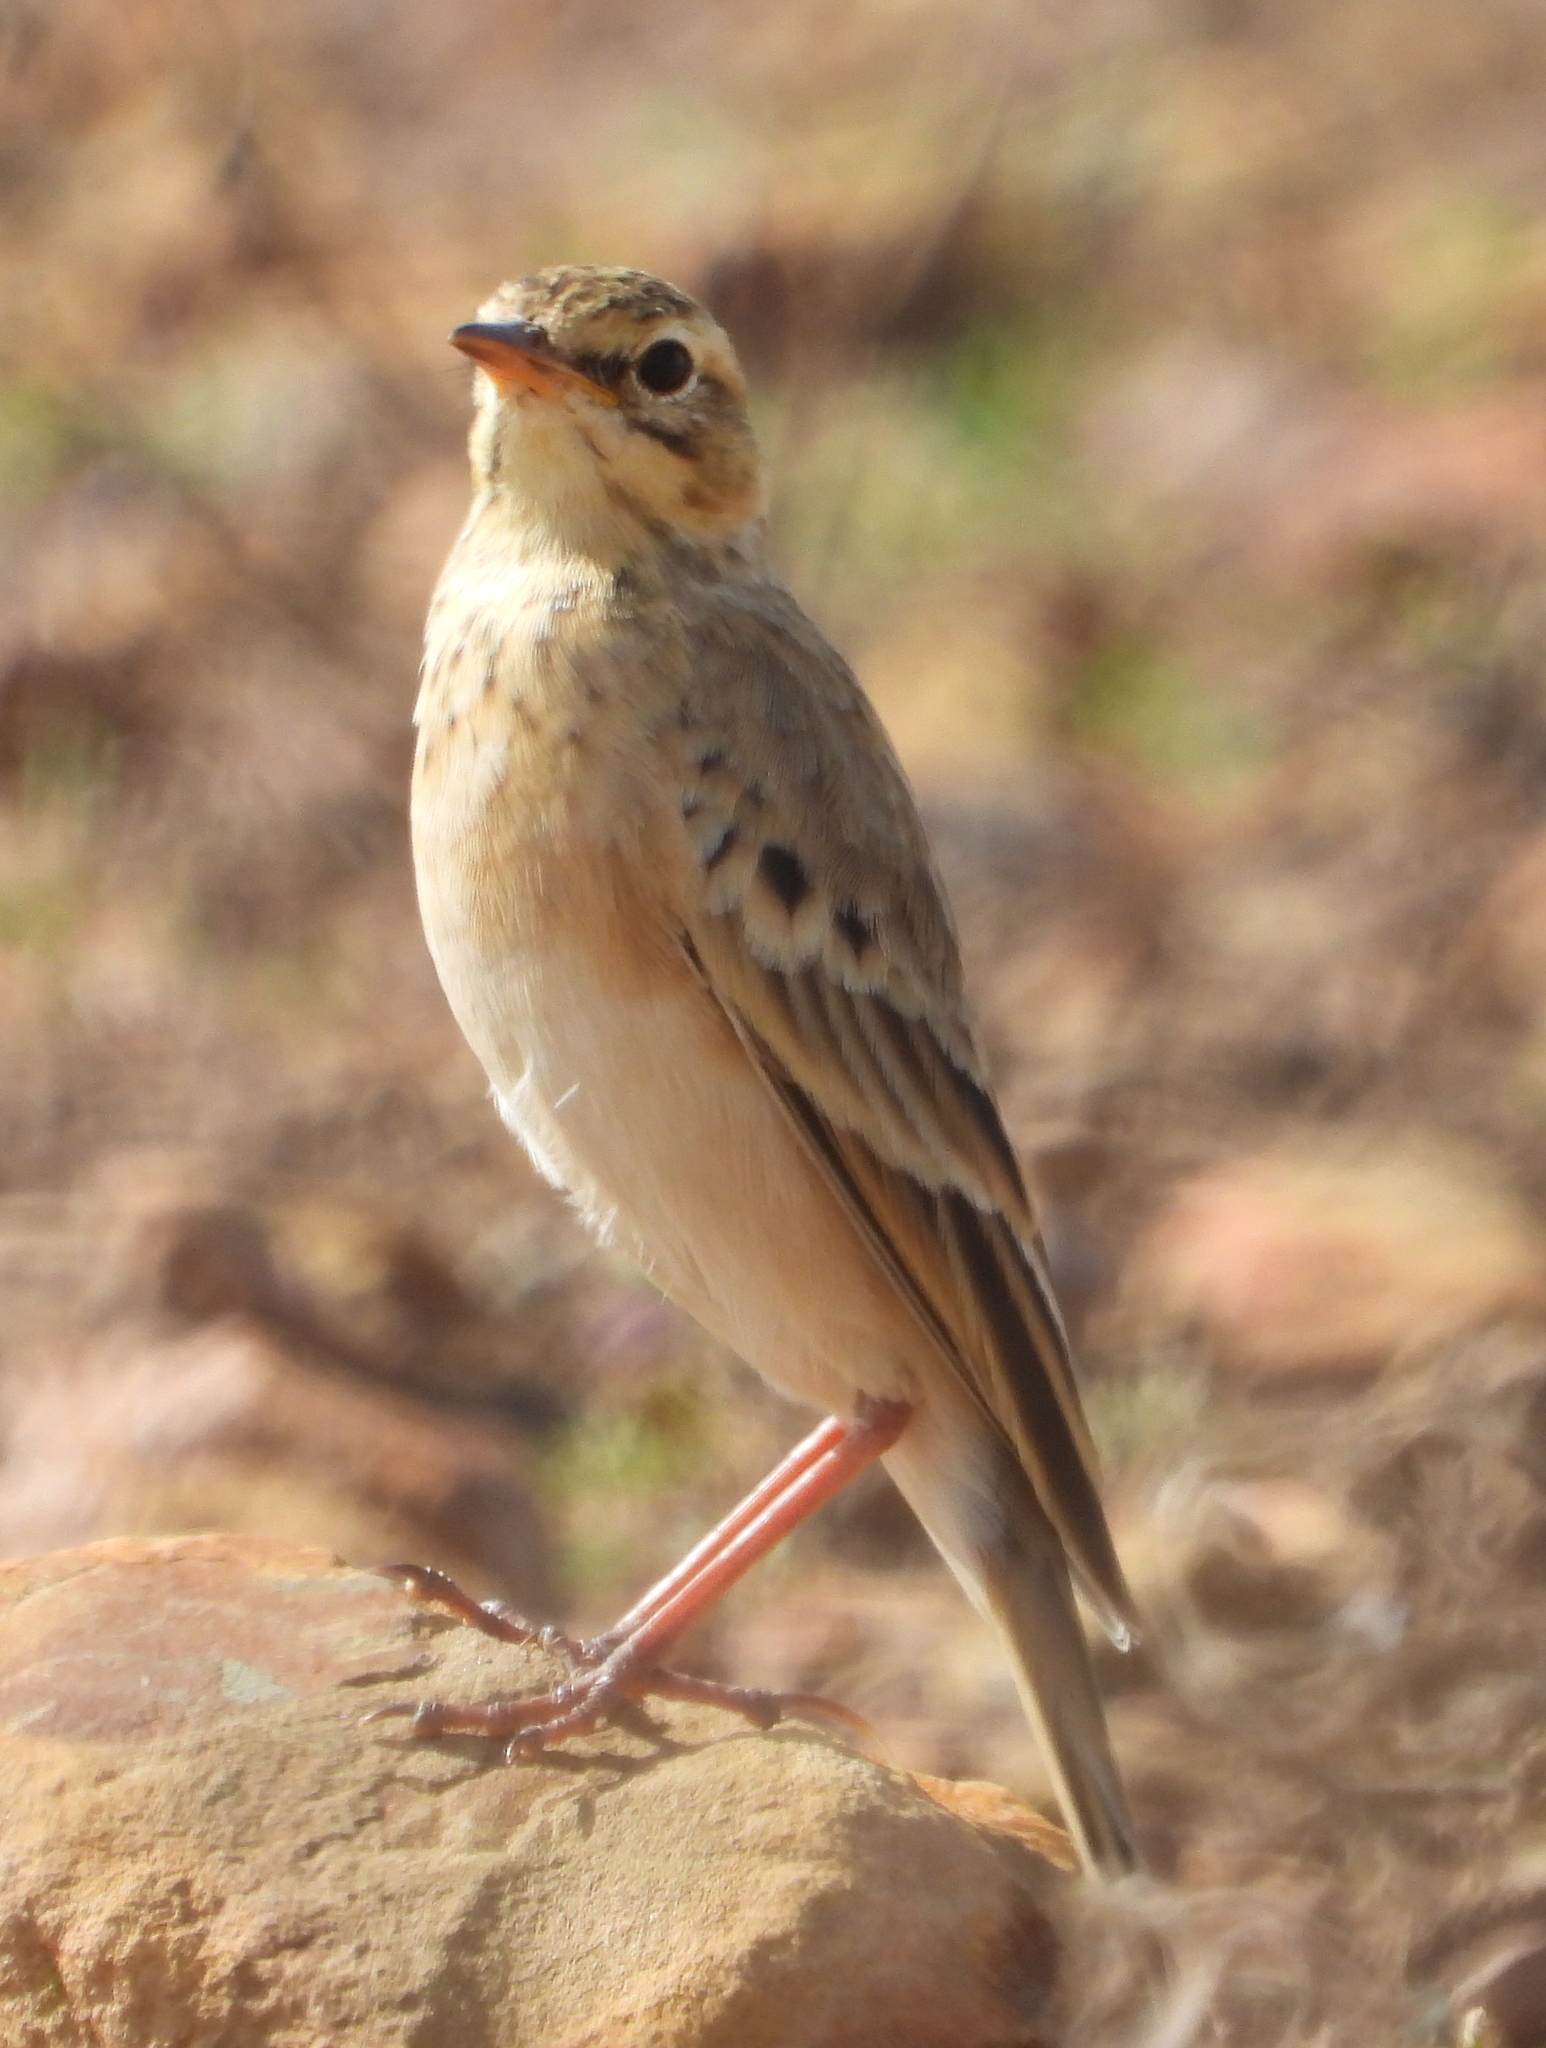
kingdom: Animalia
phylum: Chordata
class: Aves
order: Passeriformes
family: Motacillidae
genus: Anthus
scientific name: Anthus cinnamomeus
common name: African pipit
